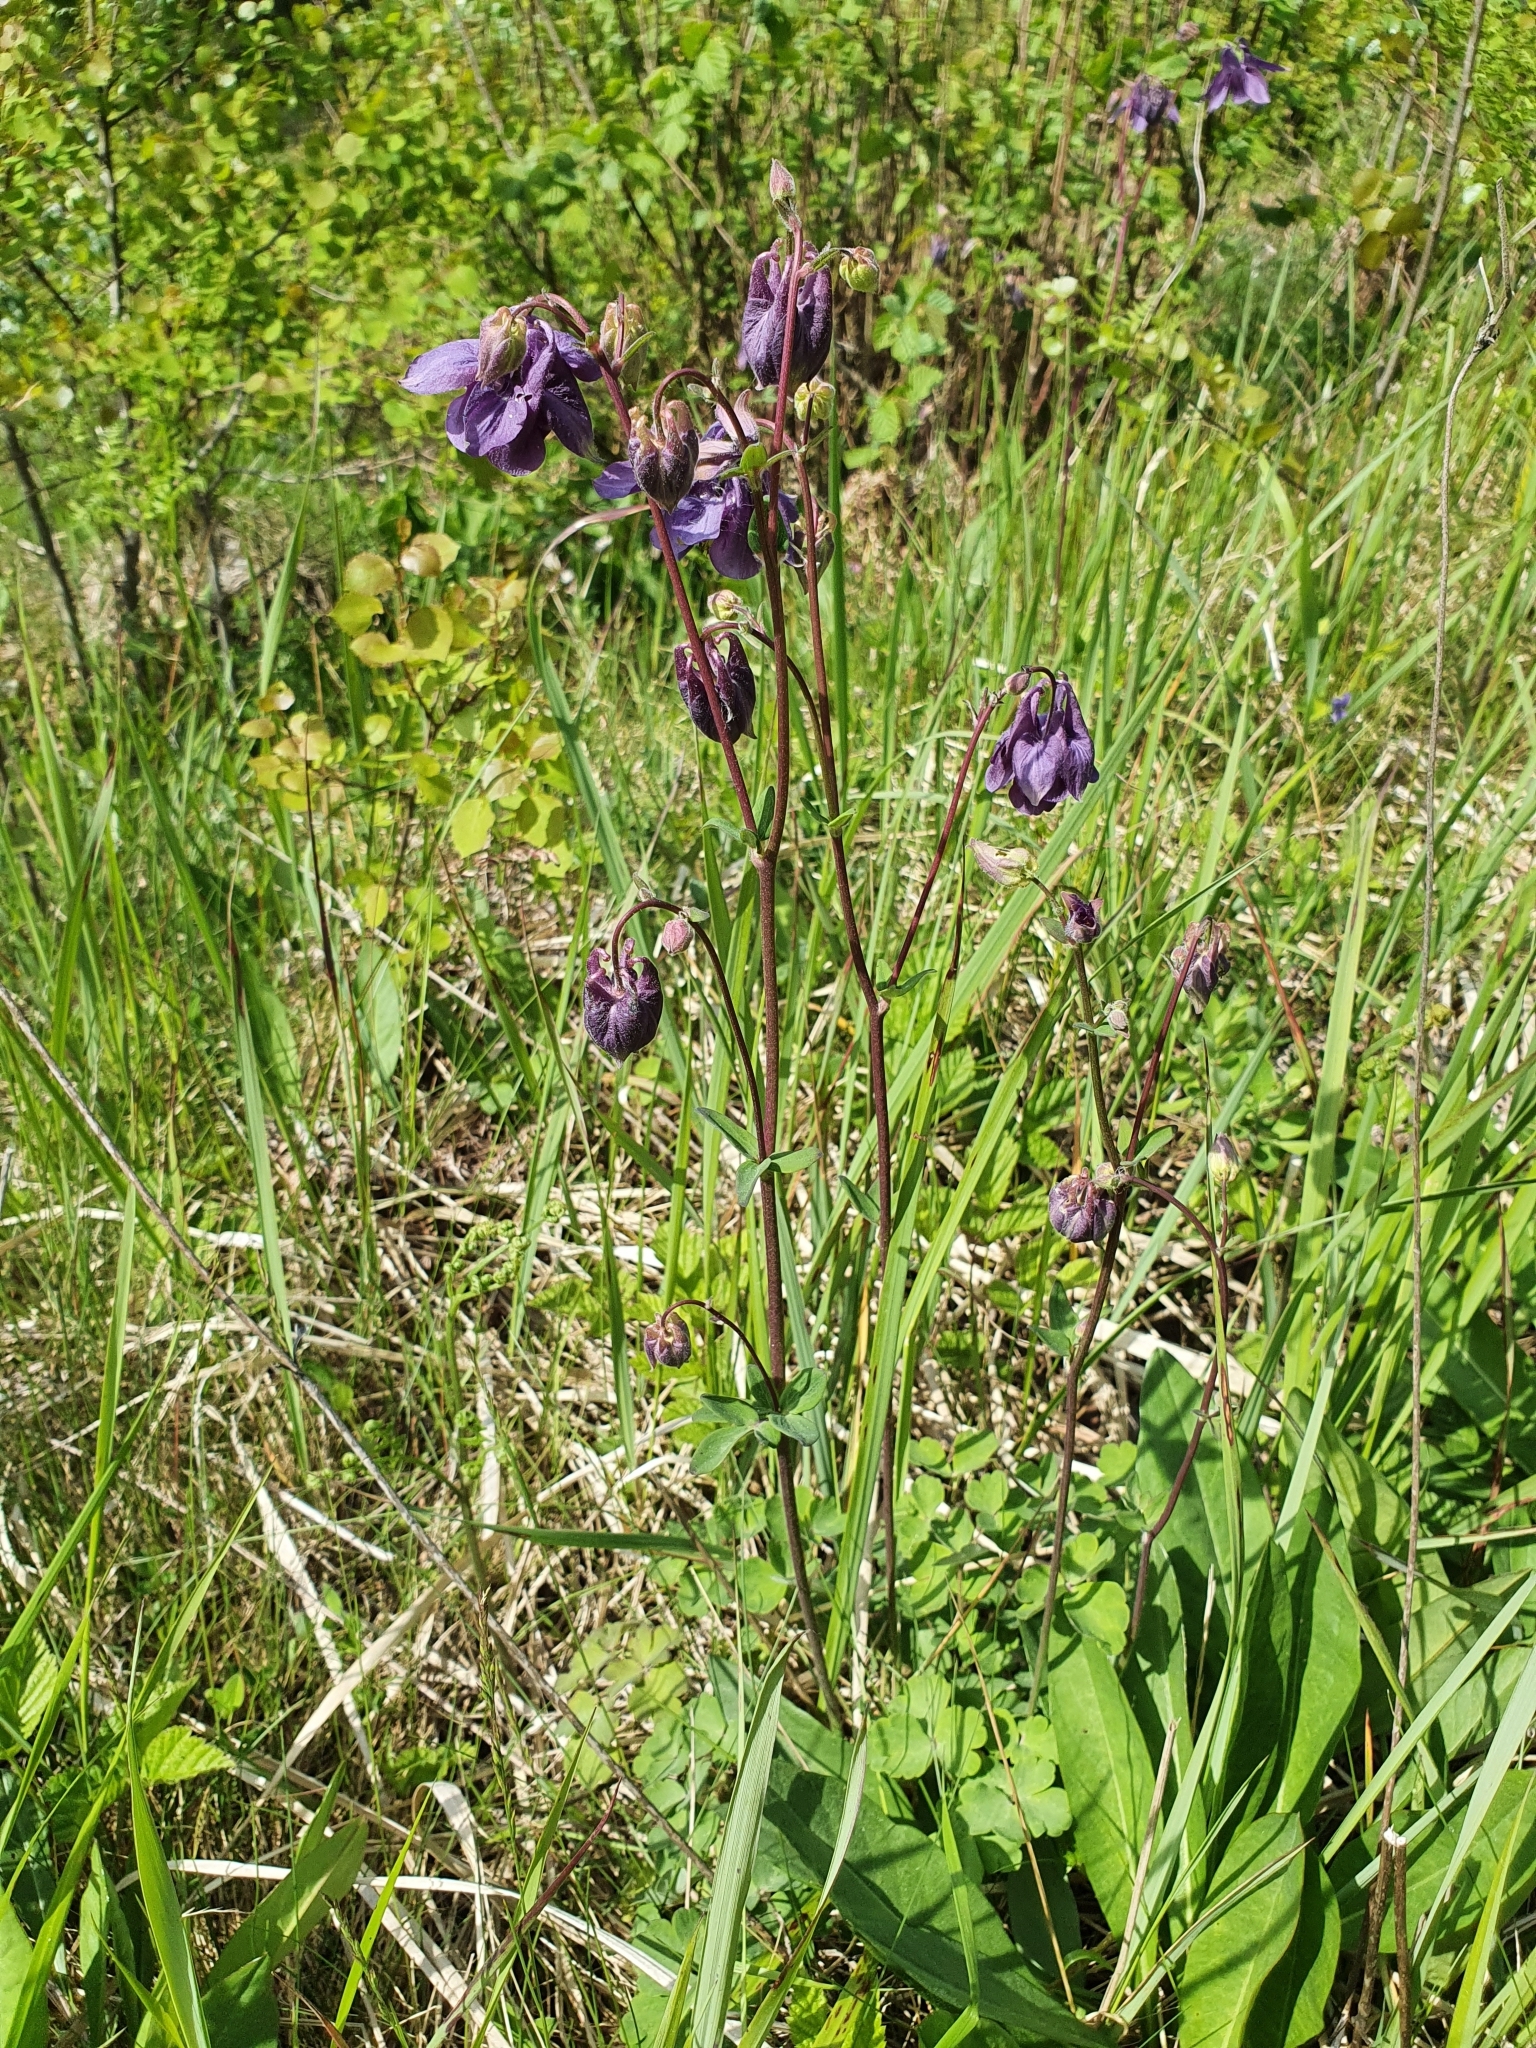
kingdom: Plantae
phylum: Tracheophyta
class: Magnoliopsida
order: Ranunculales
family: Ranunculaceae
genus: Aquilegia
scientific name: Aquilegia vulgaris
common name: Columbine
